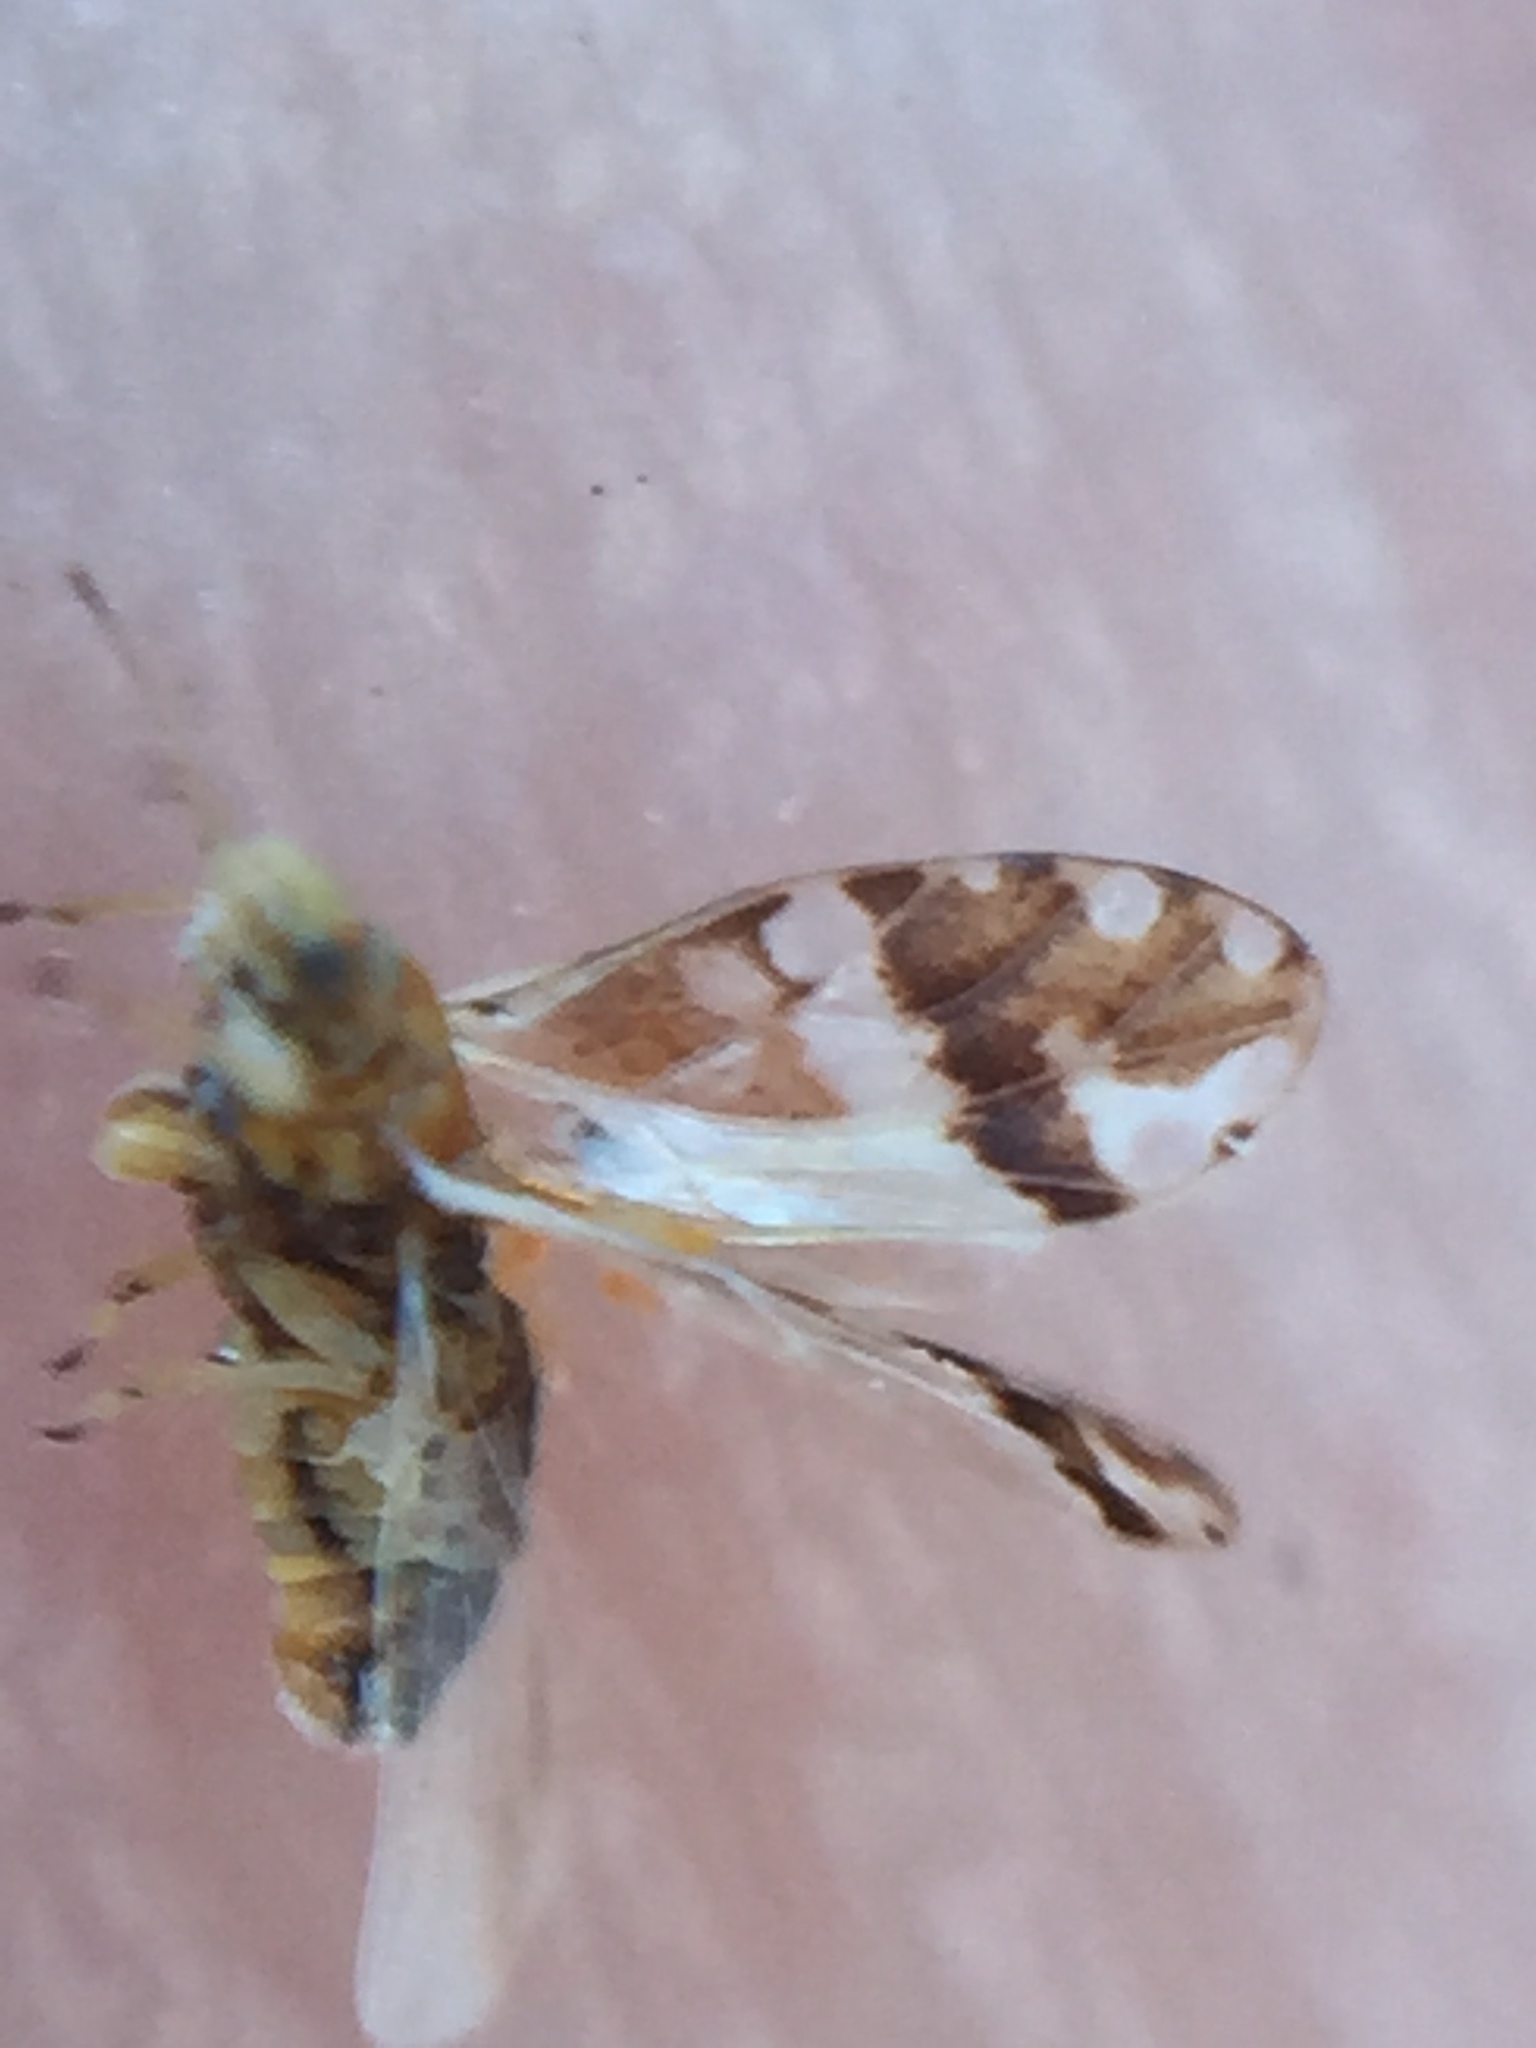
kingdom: Animalia
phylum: Arthropoda
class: Insecta
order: Hemiptera
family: Triozidae
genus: Casuarinicola
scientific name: Casuarinicola nigrimaculatus
